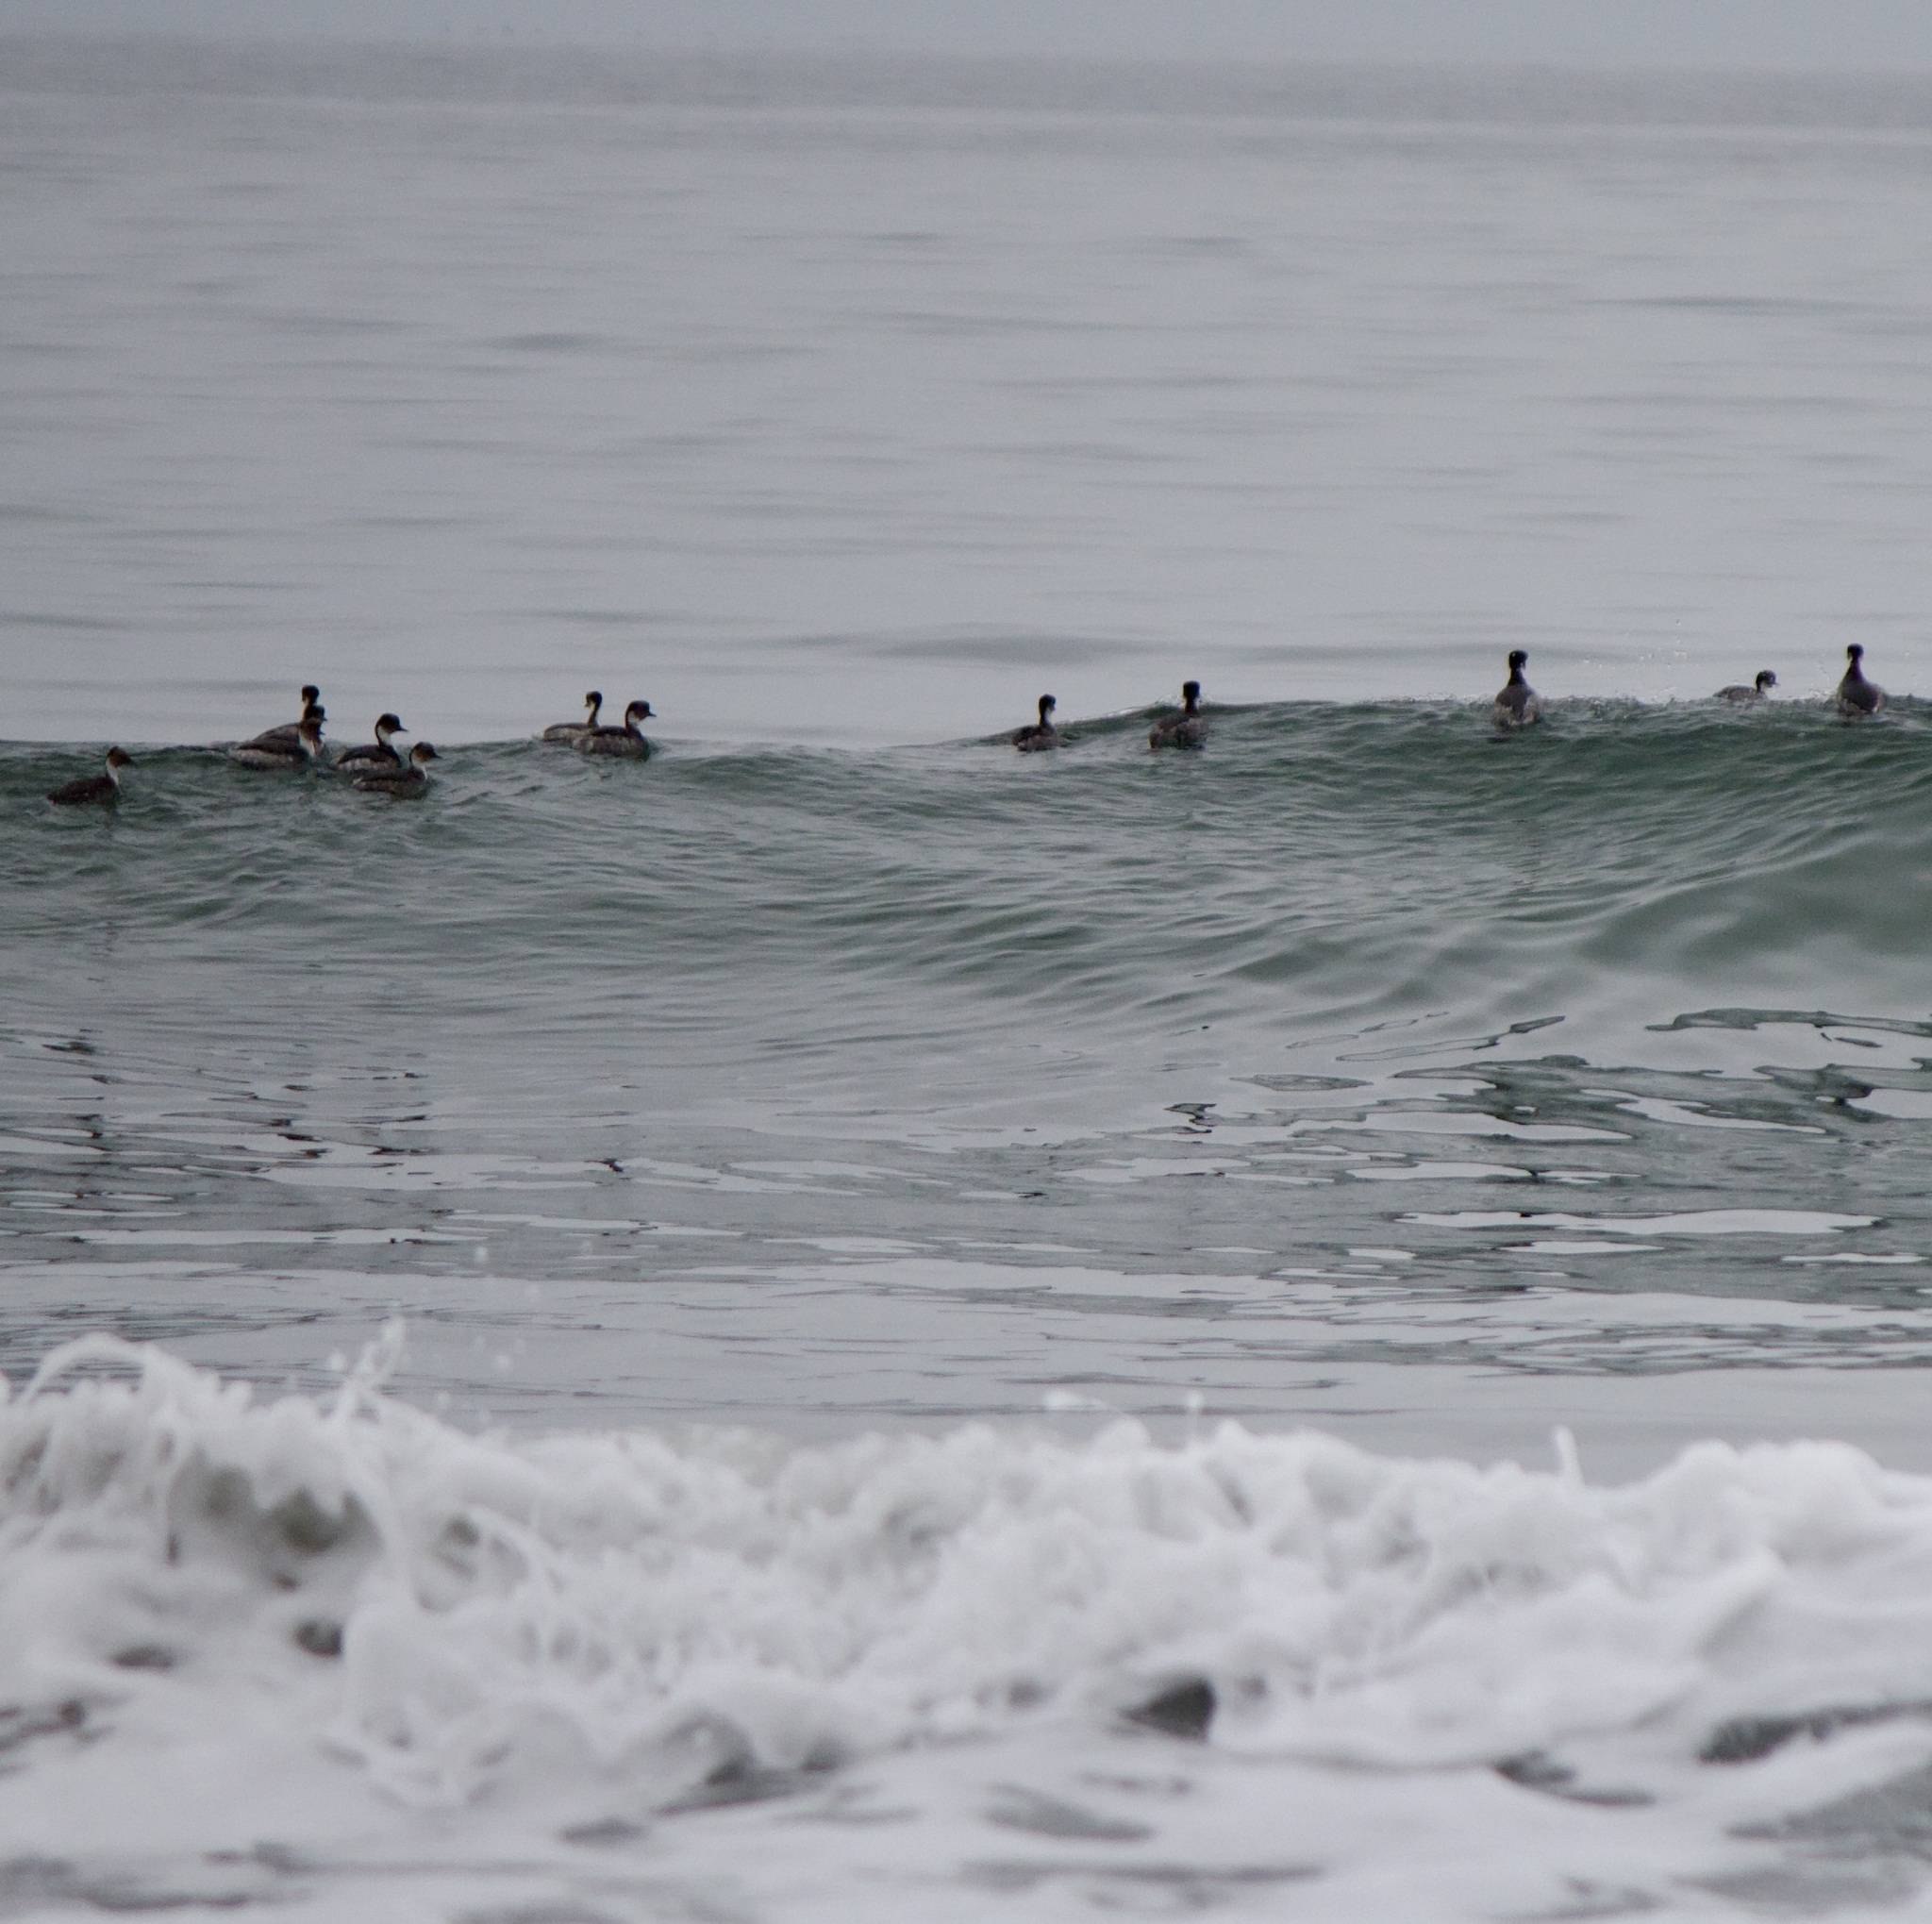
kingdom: Animalia
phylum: Chordata
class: Aves
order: Podicipediformes
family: Podicipedidae
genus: Podiceps
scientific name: Podiceps occipitalis
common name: Silvery grebe
